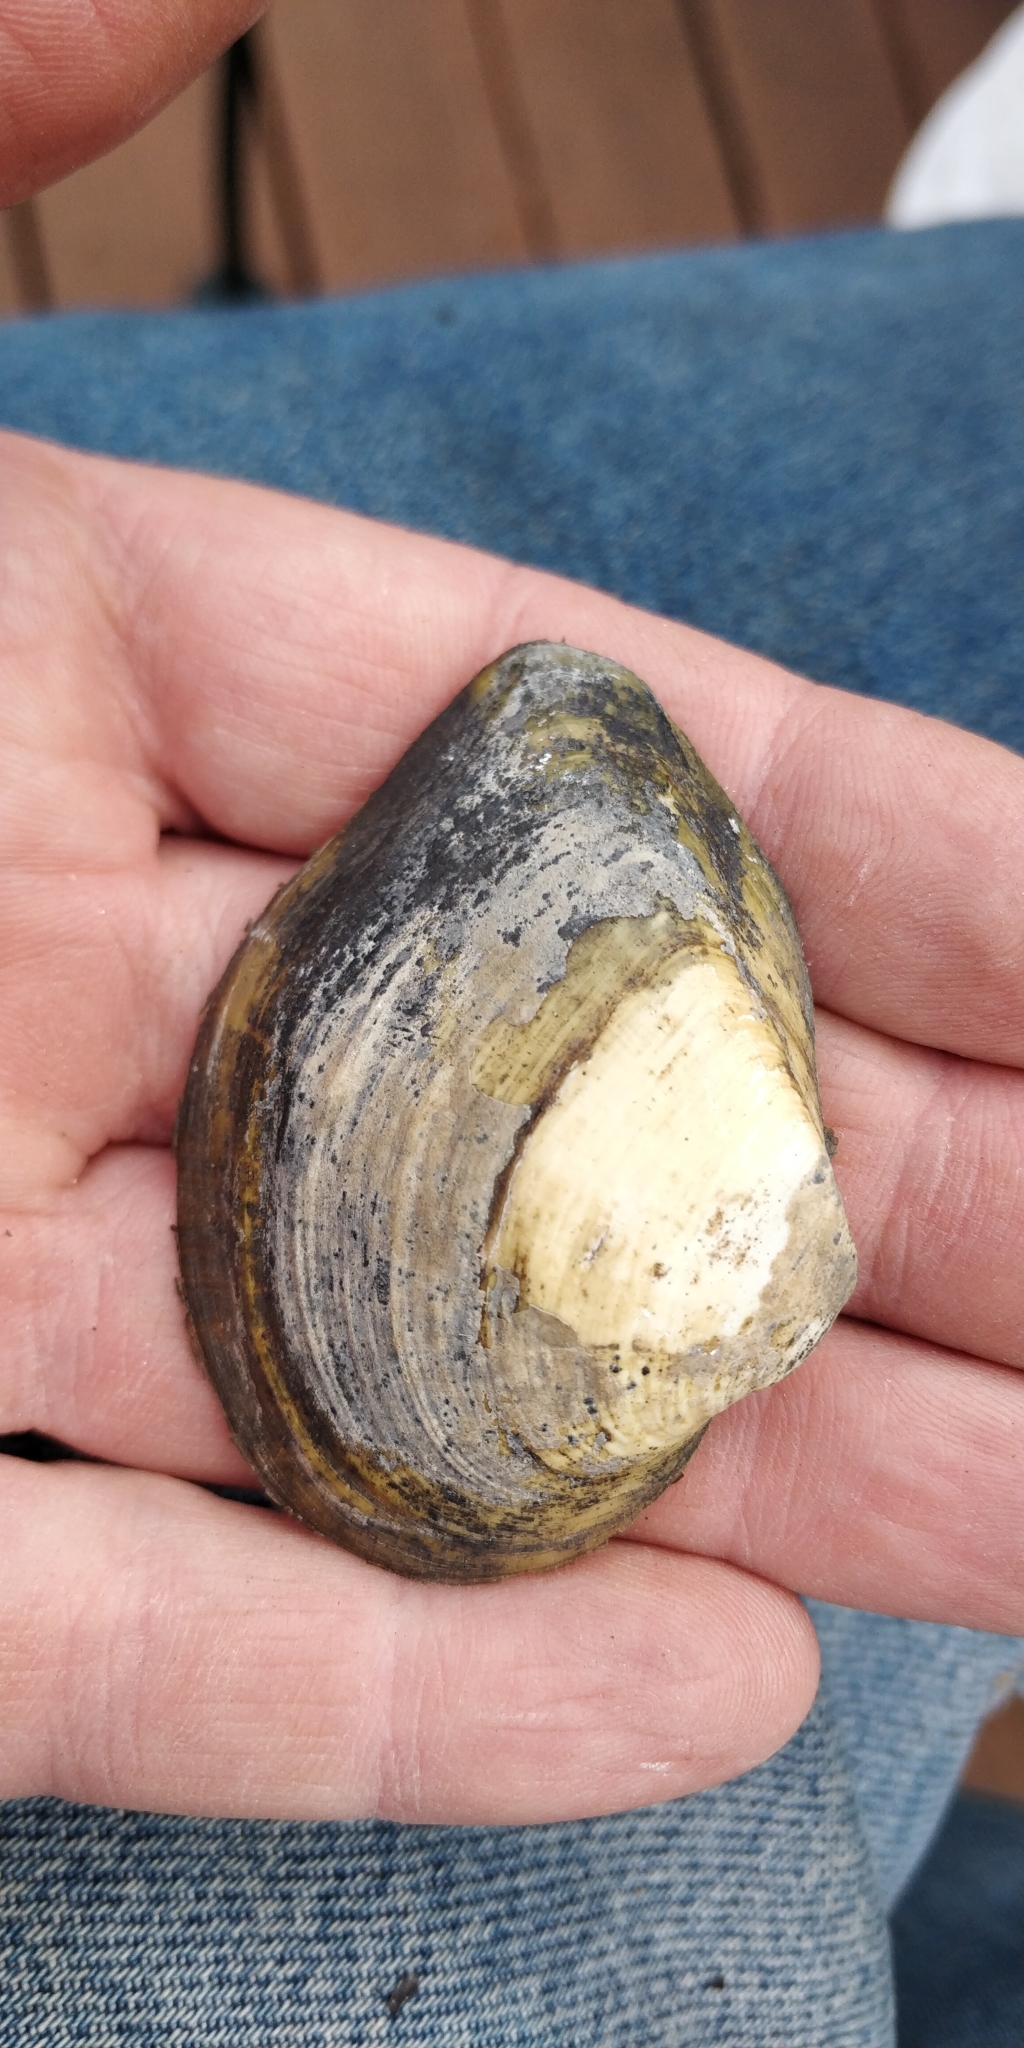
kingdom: Animalia
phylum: Mollusca
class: Bivalvia
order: Unionida
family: Unionidae
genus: Truncilla
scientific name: Truncilla truncata
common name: Deertoe
